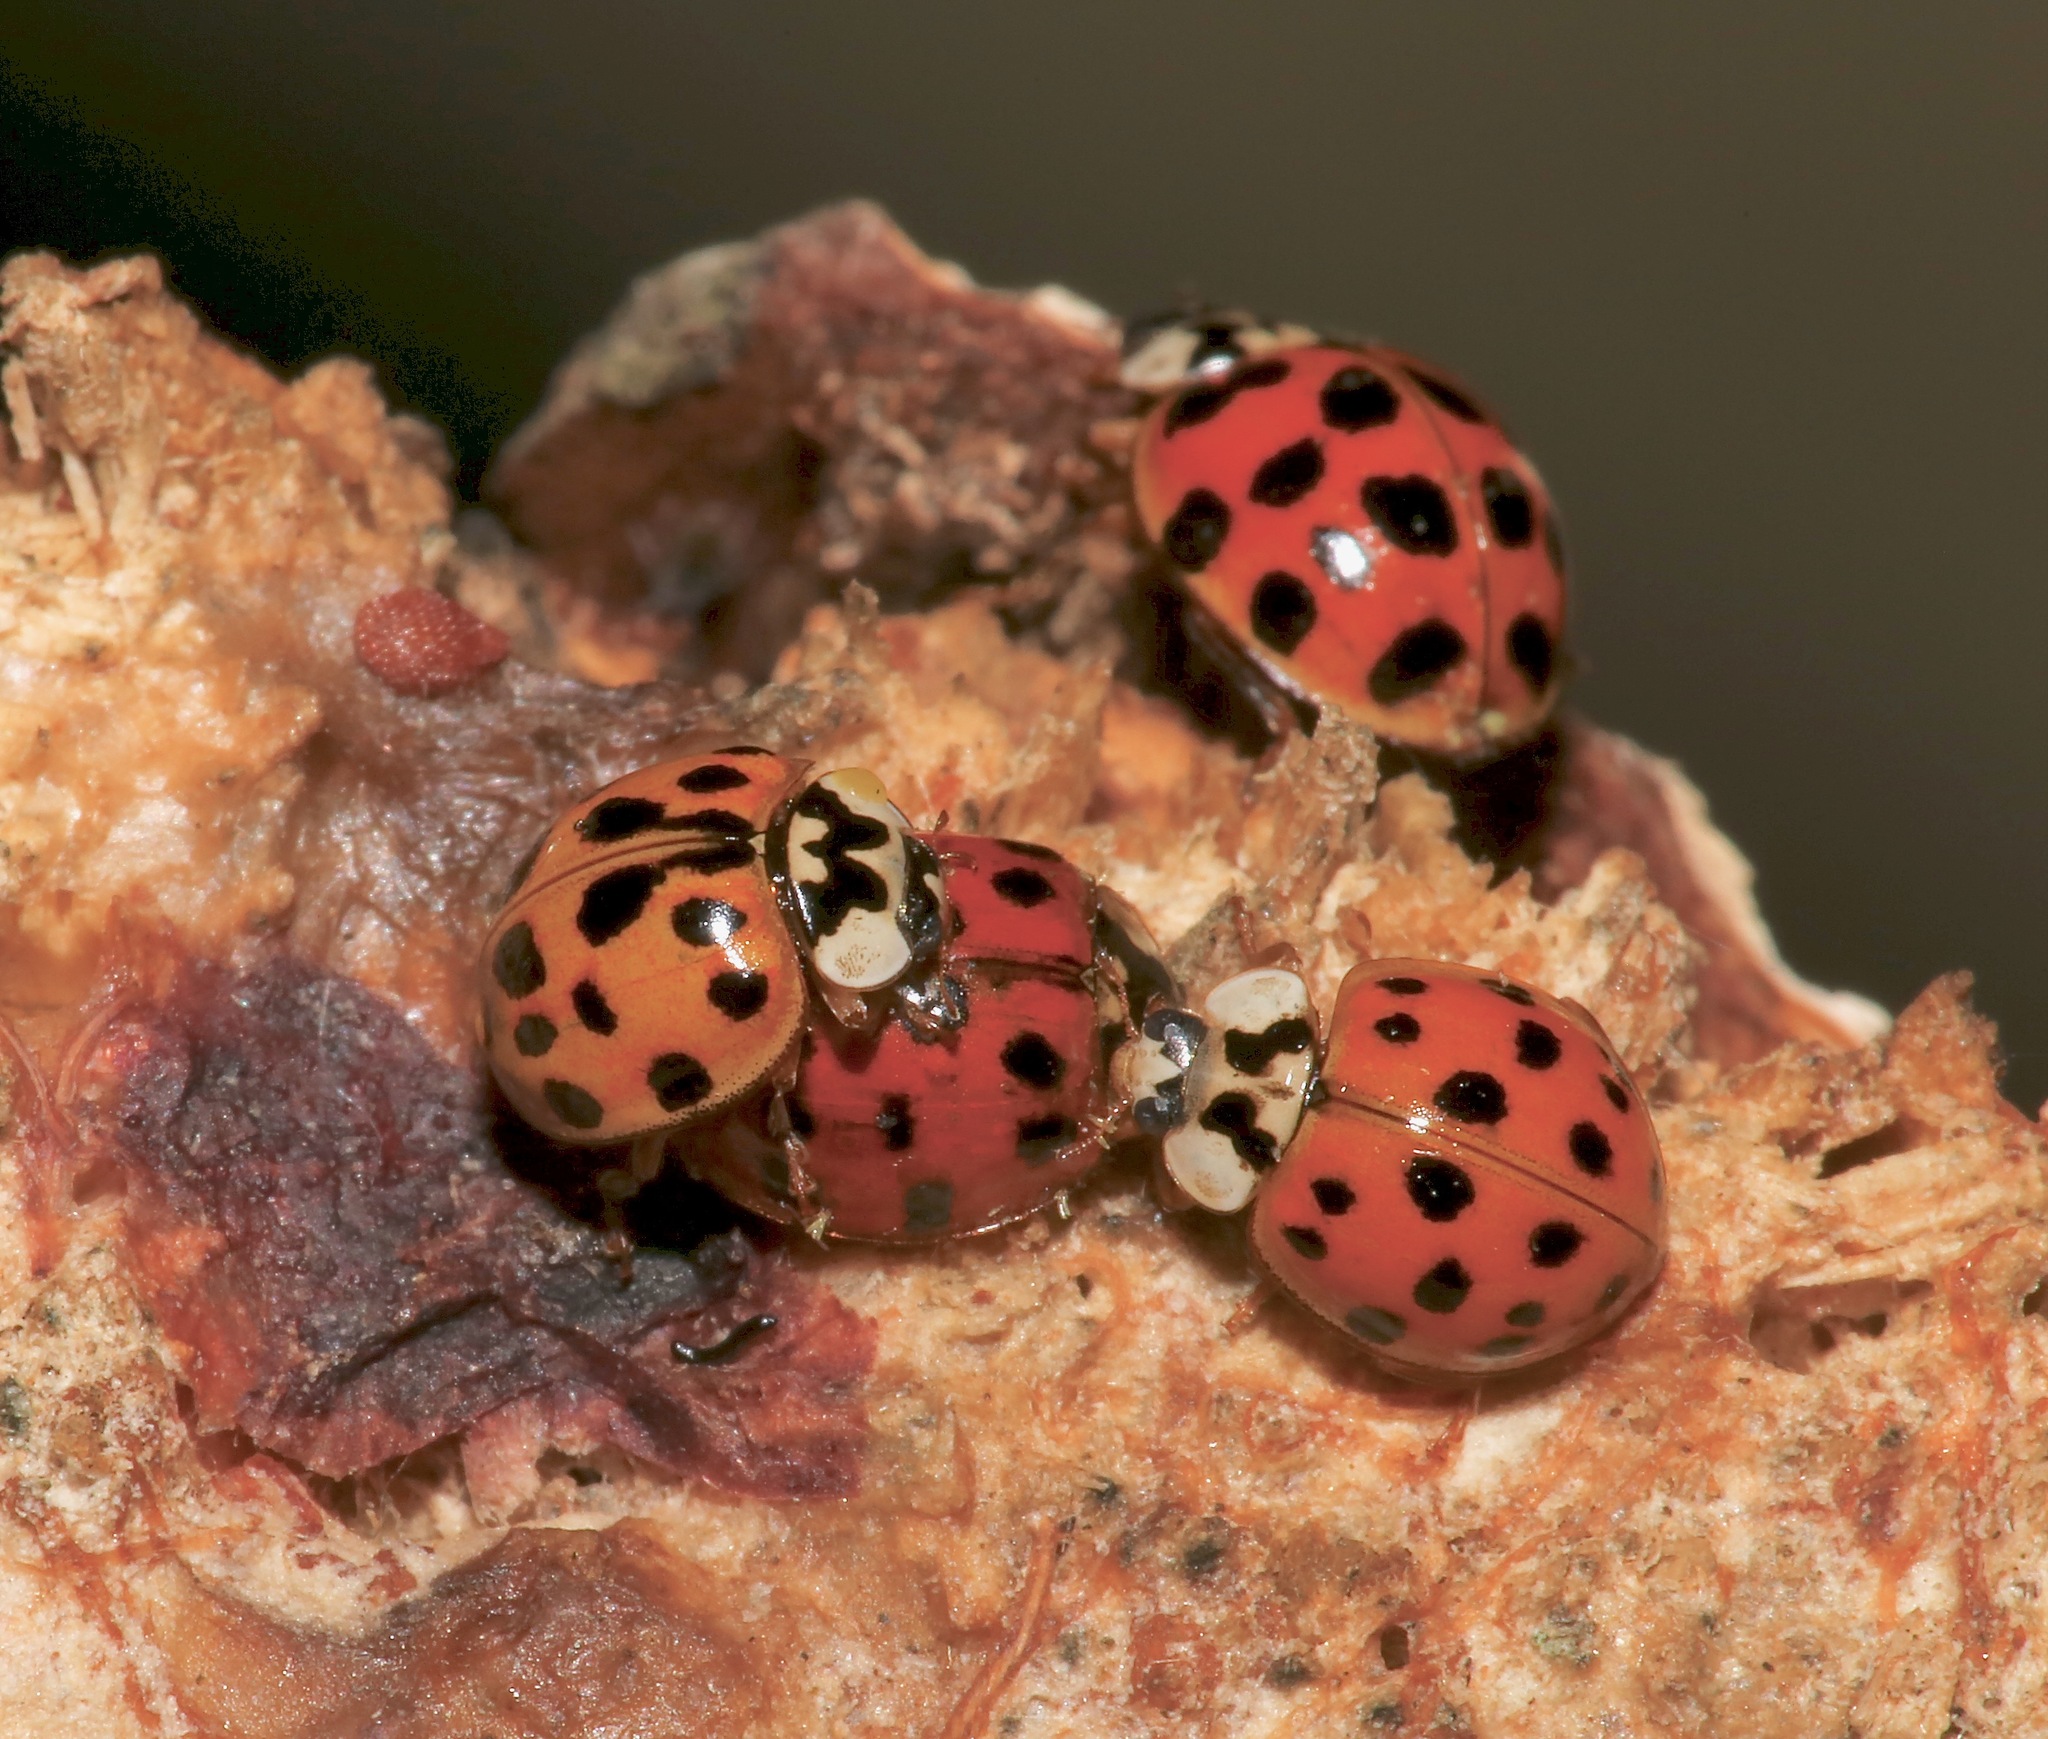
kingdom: Animalia
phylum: Arthropoda
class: Insecta
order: Coleoptera
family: Coccinellidae
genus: Harmonia
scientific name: Harmonia axyridis
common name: Harlequin ladybird
